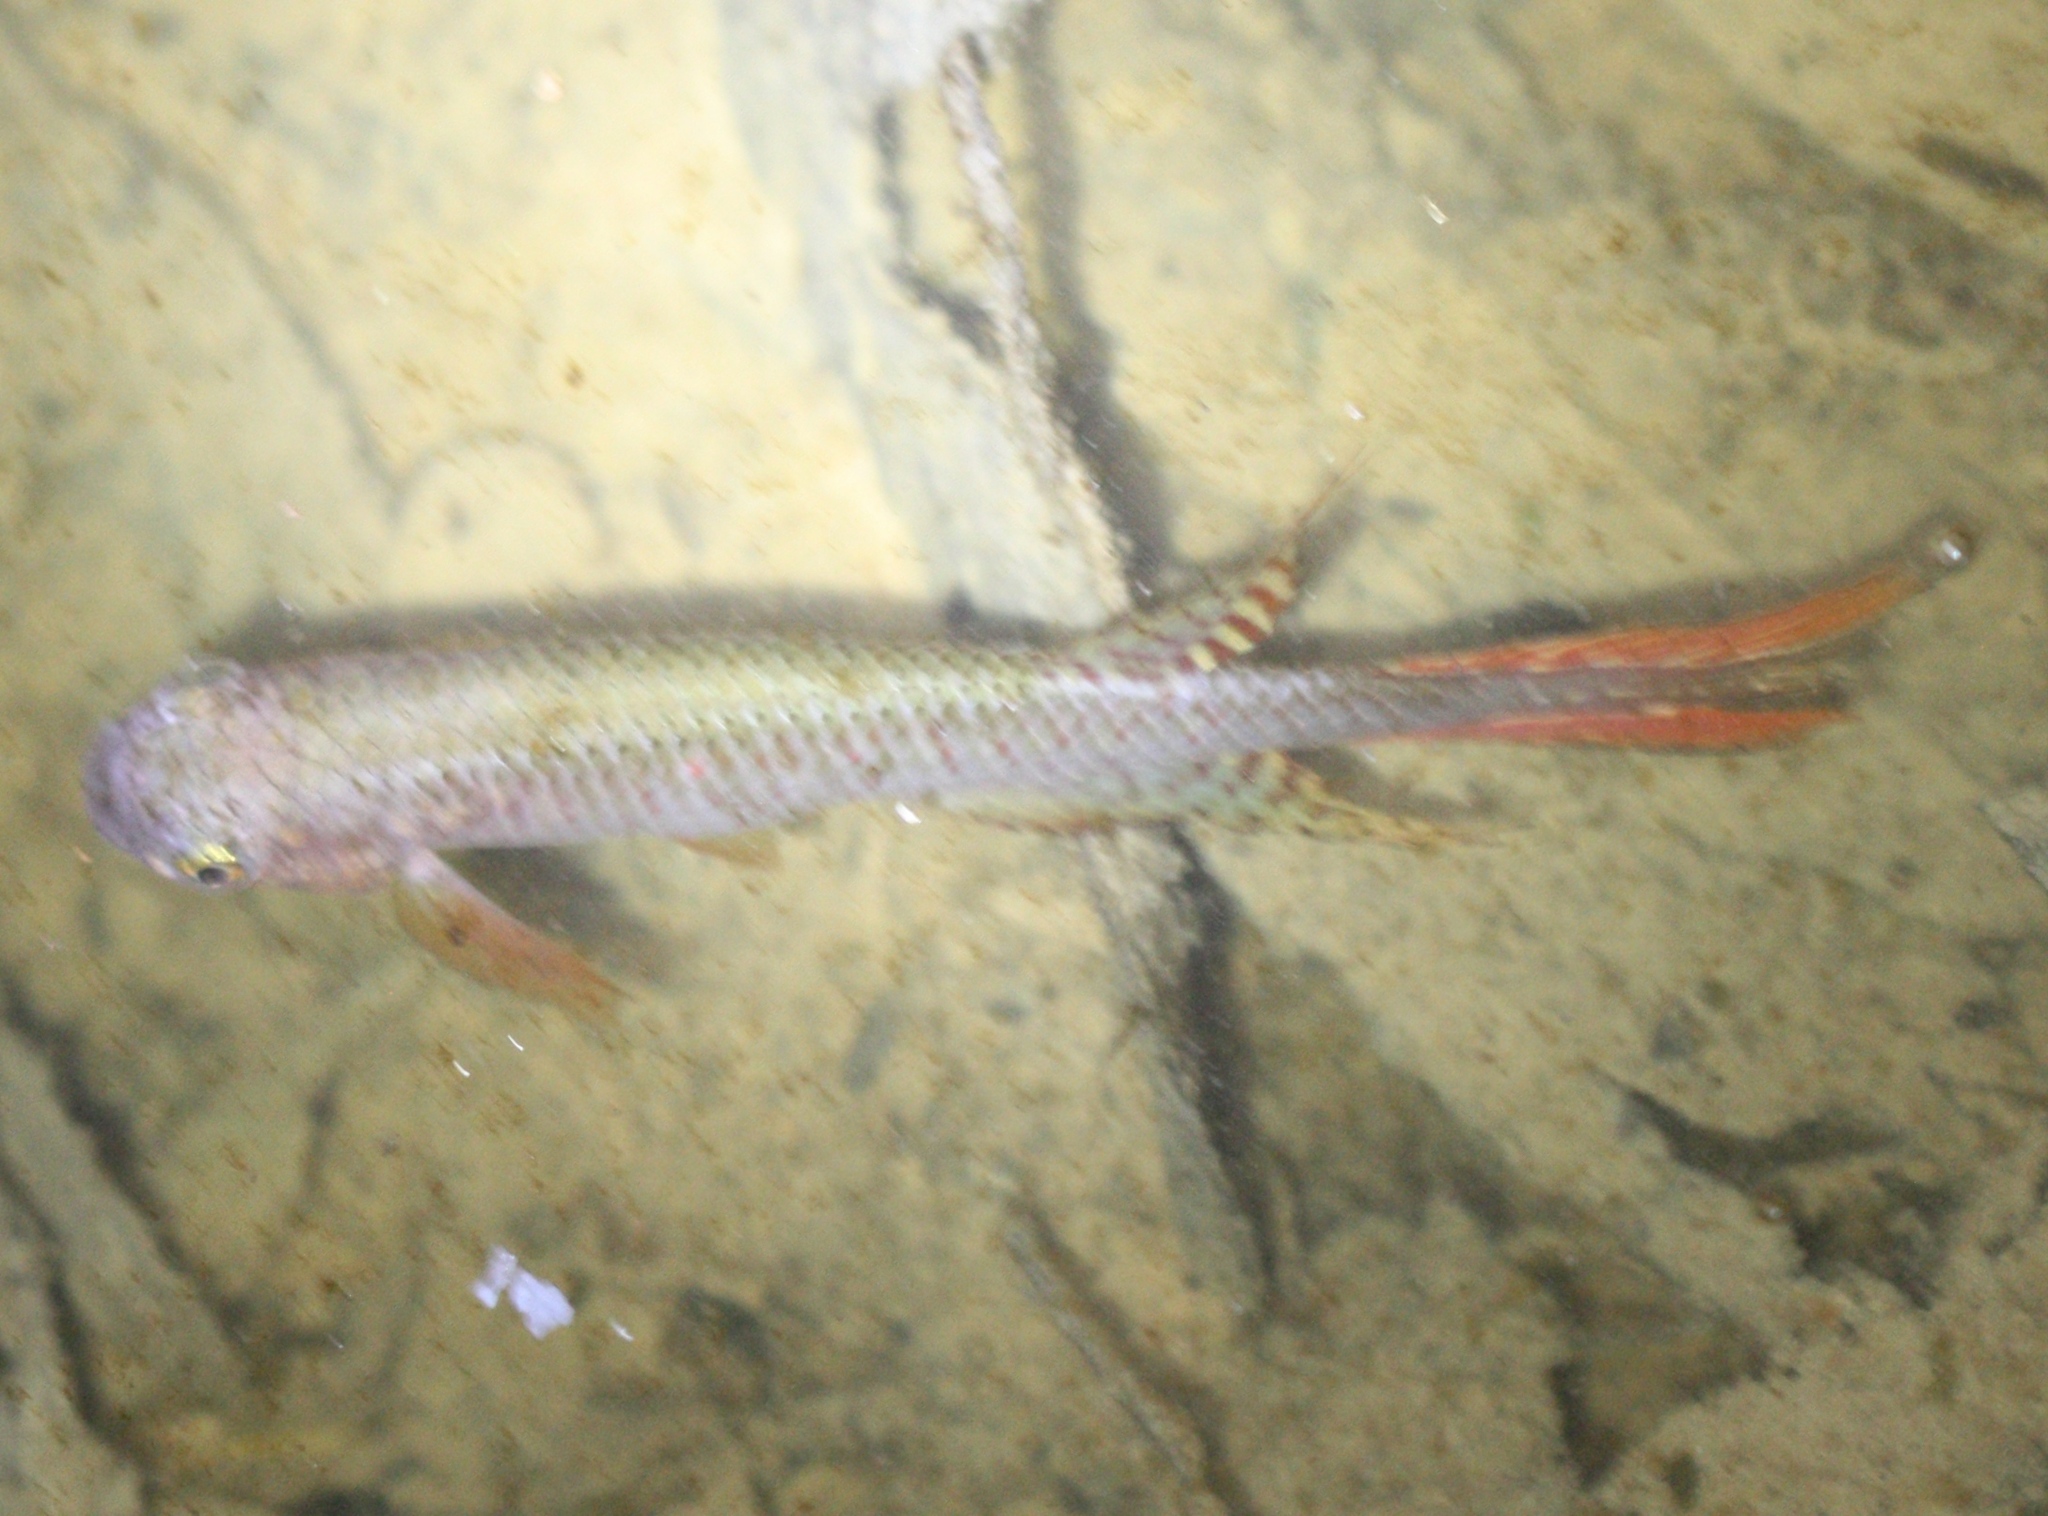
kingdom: Animalia
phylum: Chordata
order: Cyprinodontiformes
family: Rivulidae
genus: Aphyolebias
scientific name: Aphyolebias rubrocaudatus
